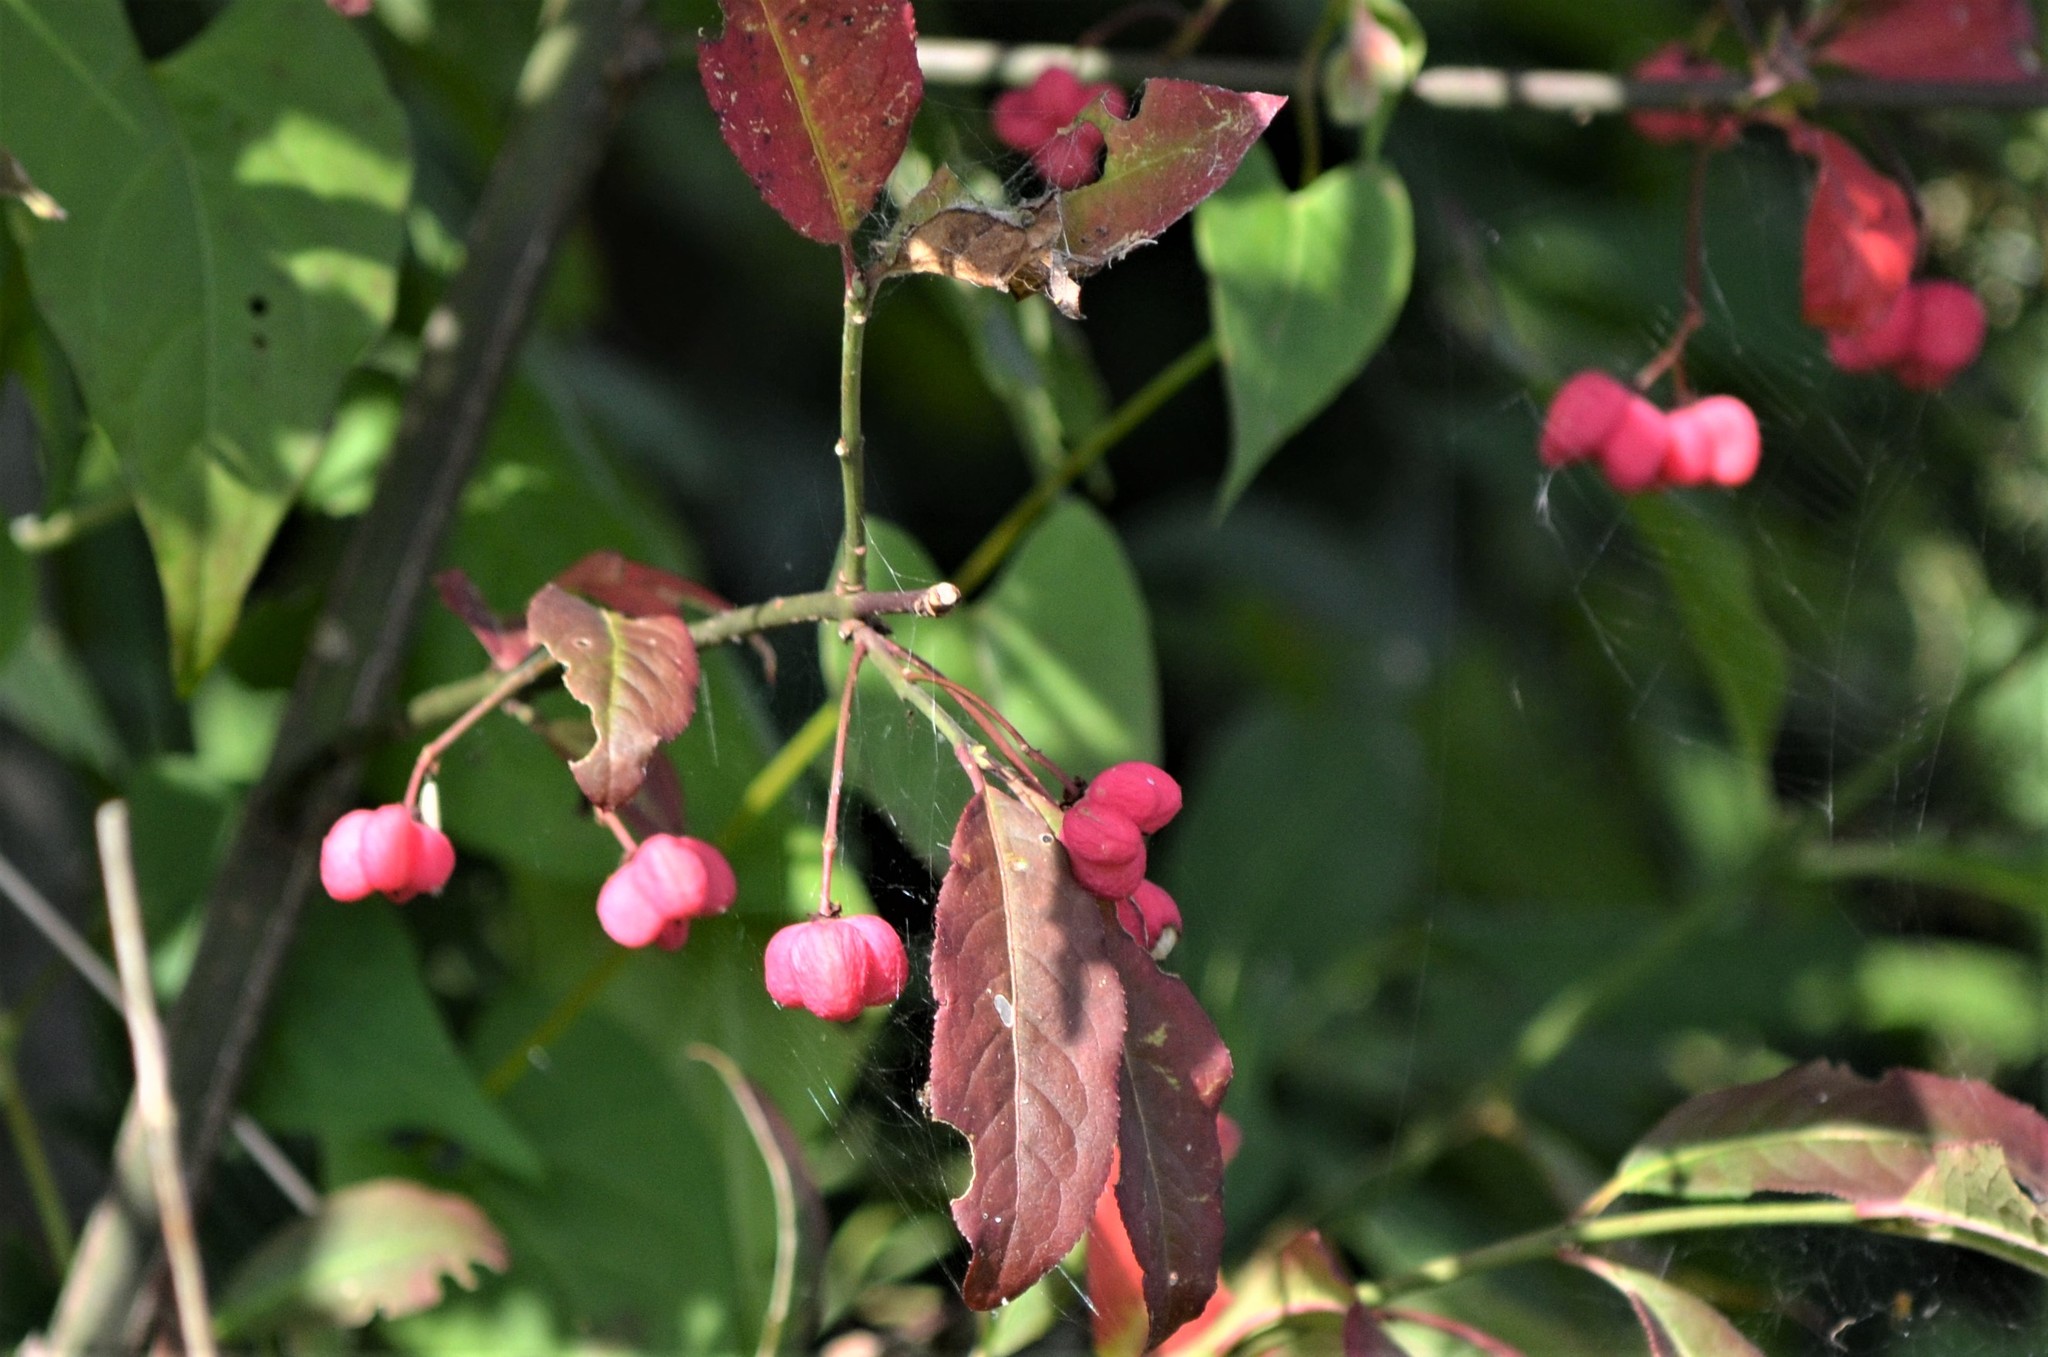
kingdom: Plantae
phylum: Tracheophyta
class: Magnoliopsida
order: Celastrales
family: Celastraceae
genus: Euonymus
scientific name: Euonymus europaeus
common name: Spindle
